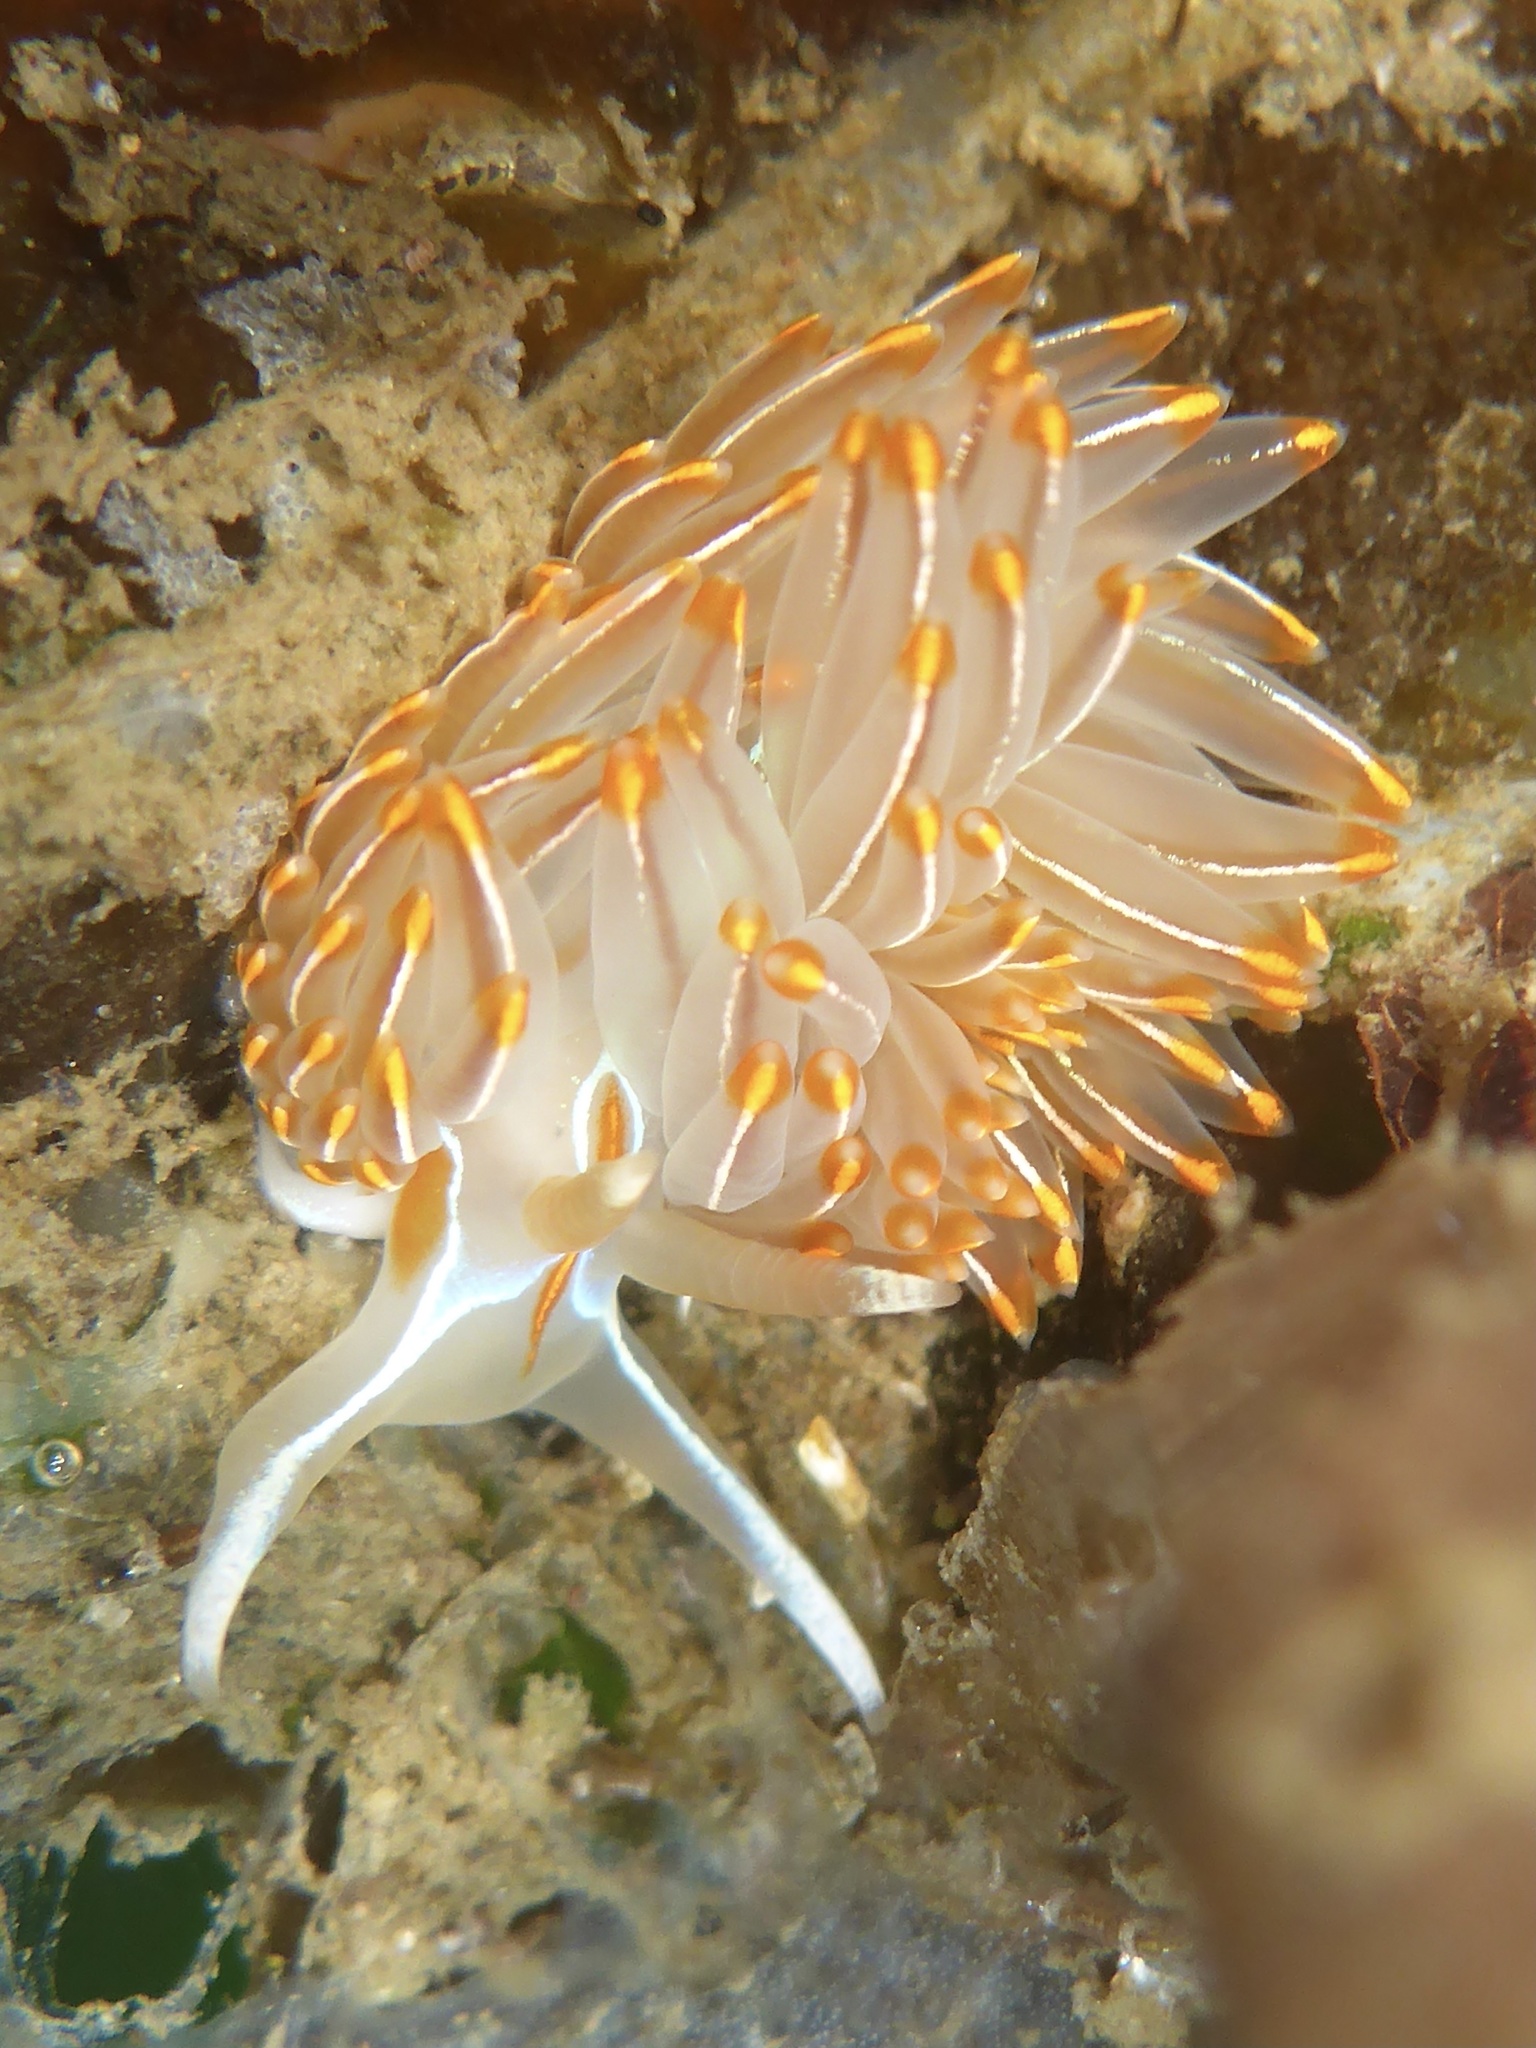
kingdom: Animalia
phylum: Mollusca
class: Gastropoda
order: Nudibranchia
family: Myrrhinidae
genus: Hermissenda
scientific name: Hermissenda crassicornis
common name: Hermissenda
